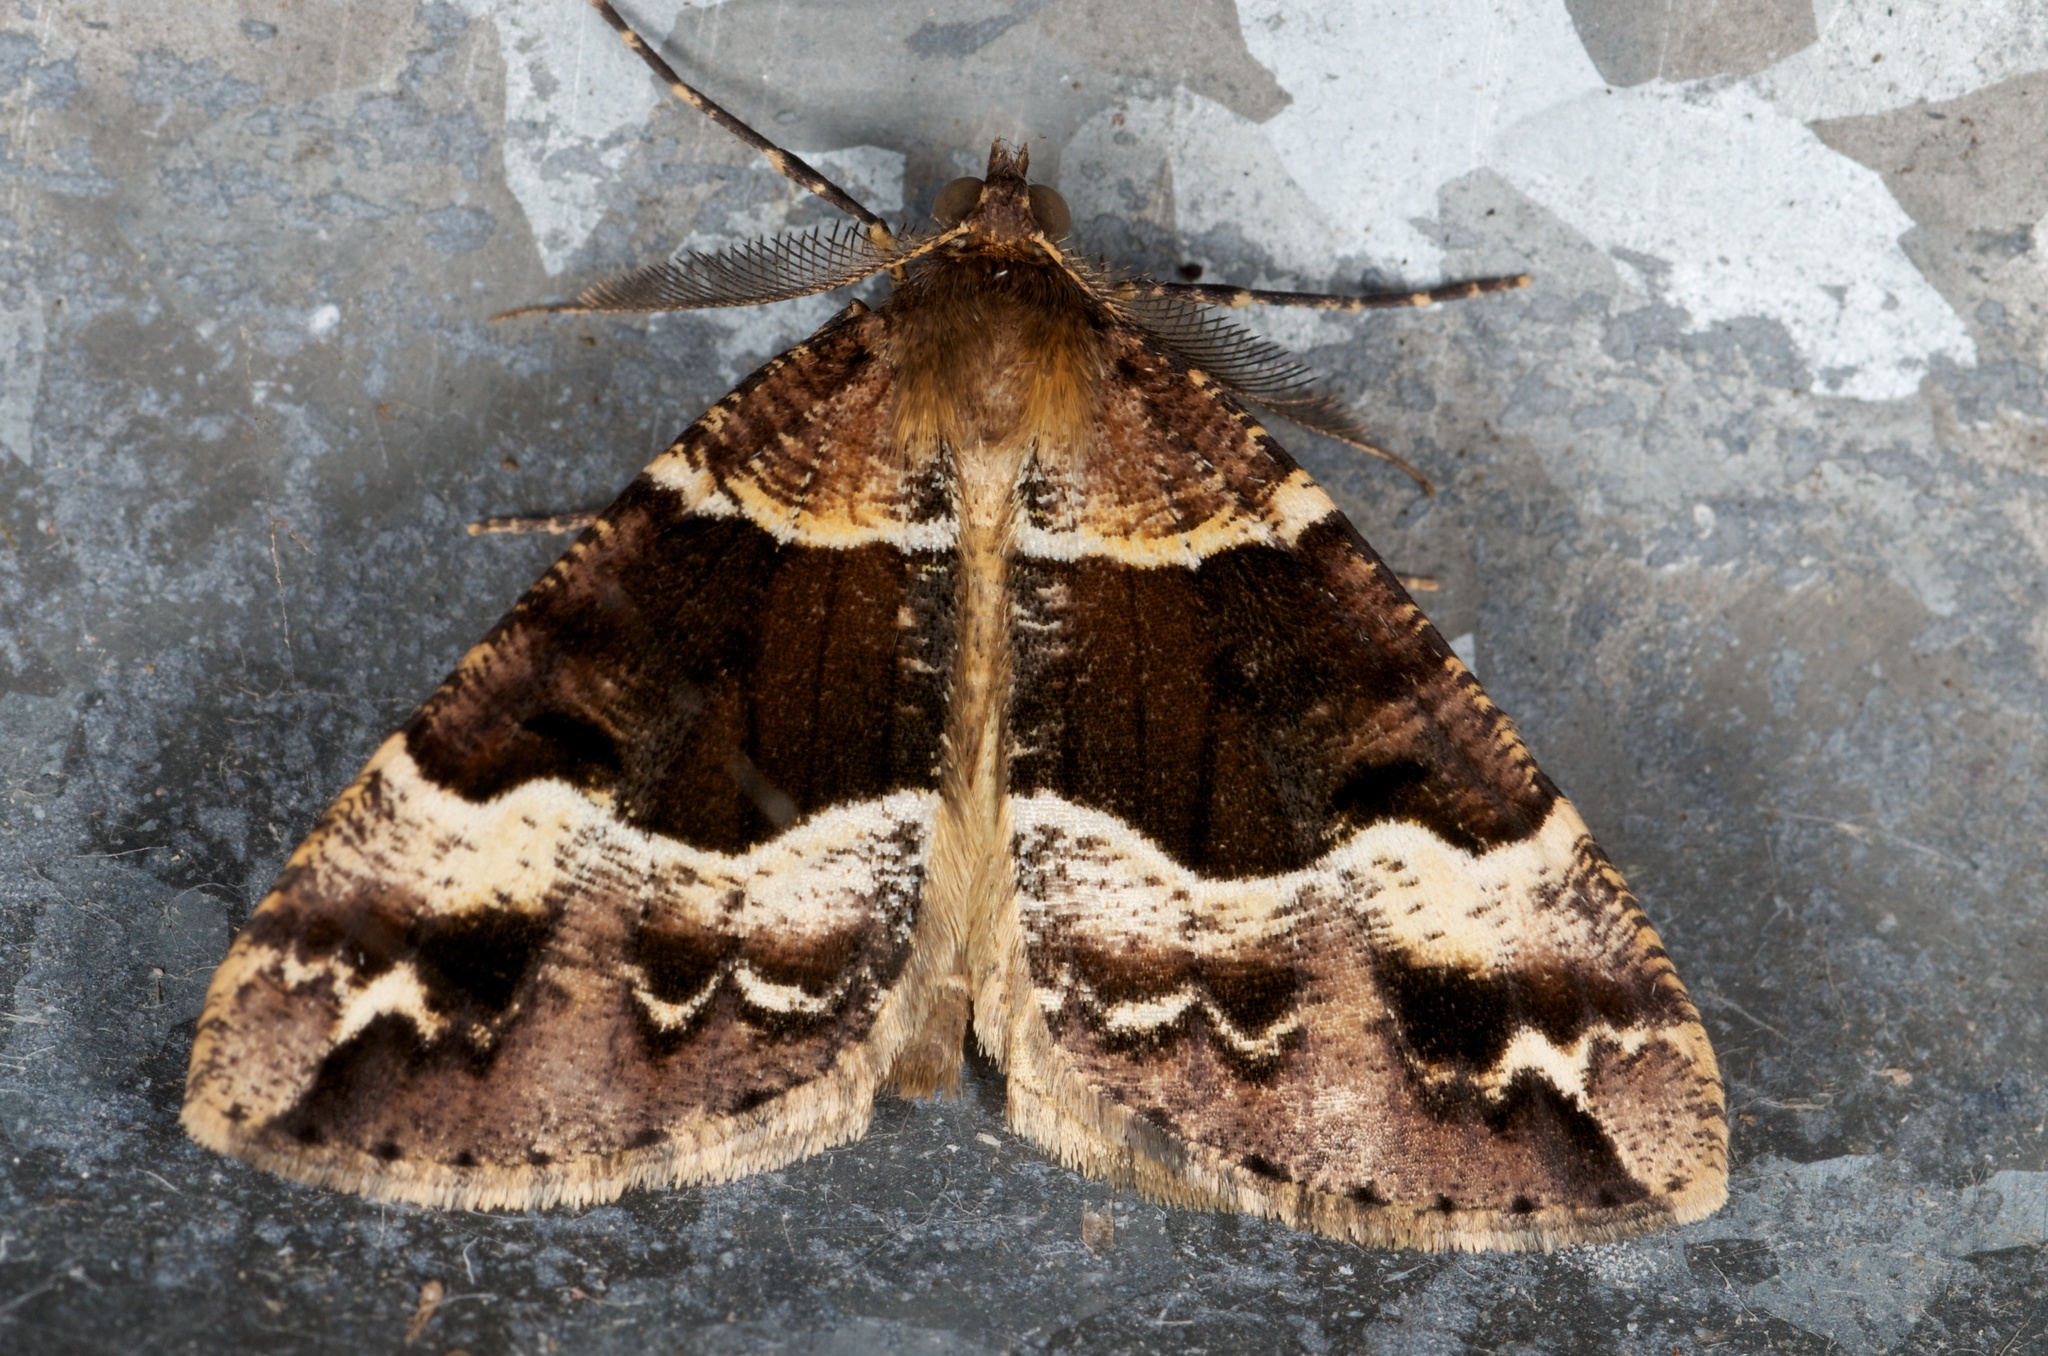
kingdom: Animalia
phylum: Arthropoda
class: Insecta
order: Lepidoptera
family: Geometridae
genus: Pseudocoremia
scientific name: Pseudocoremia fascialata
